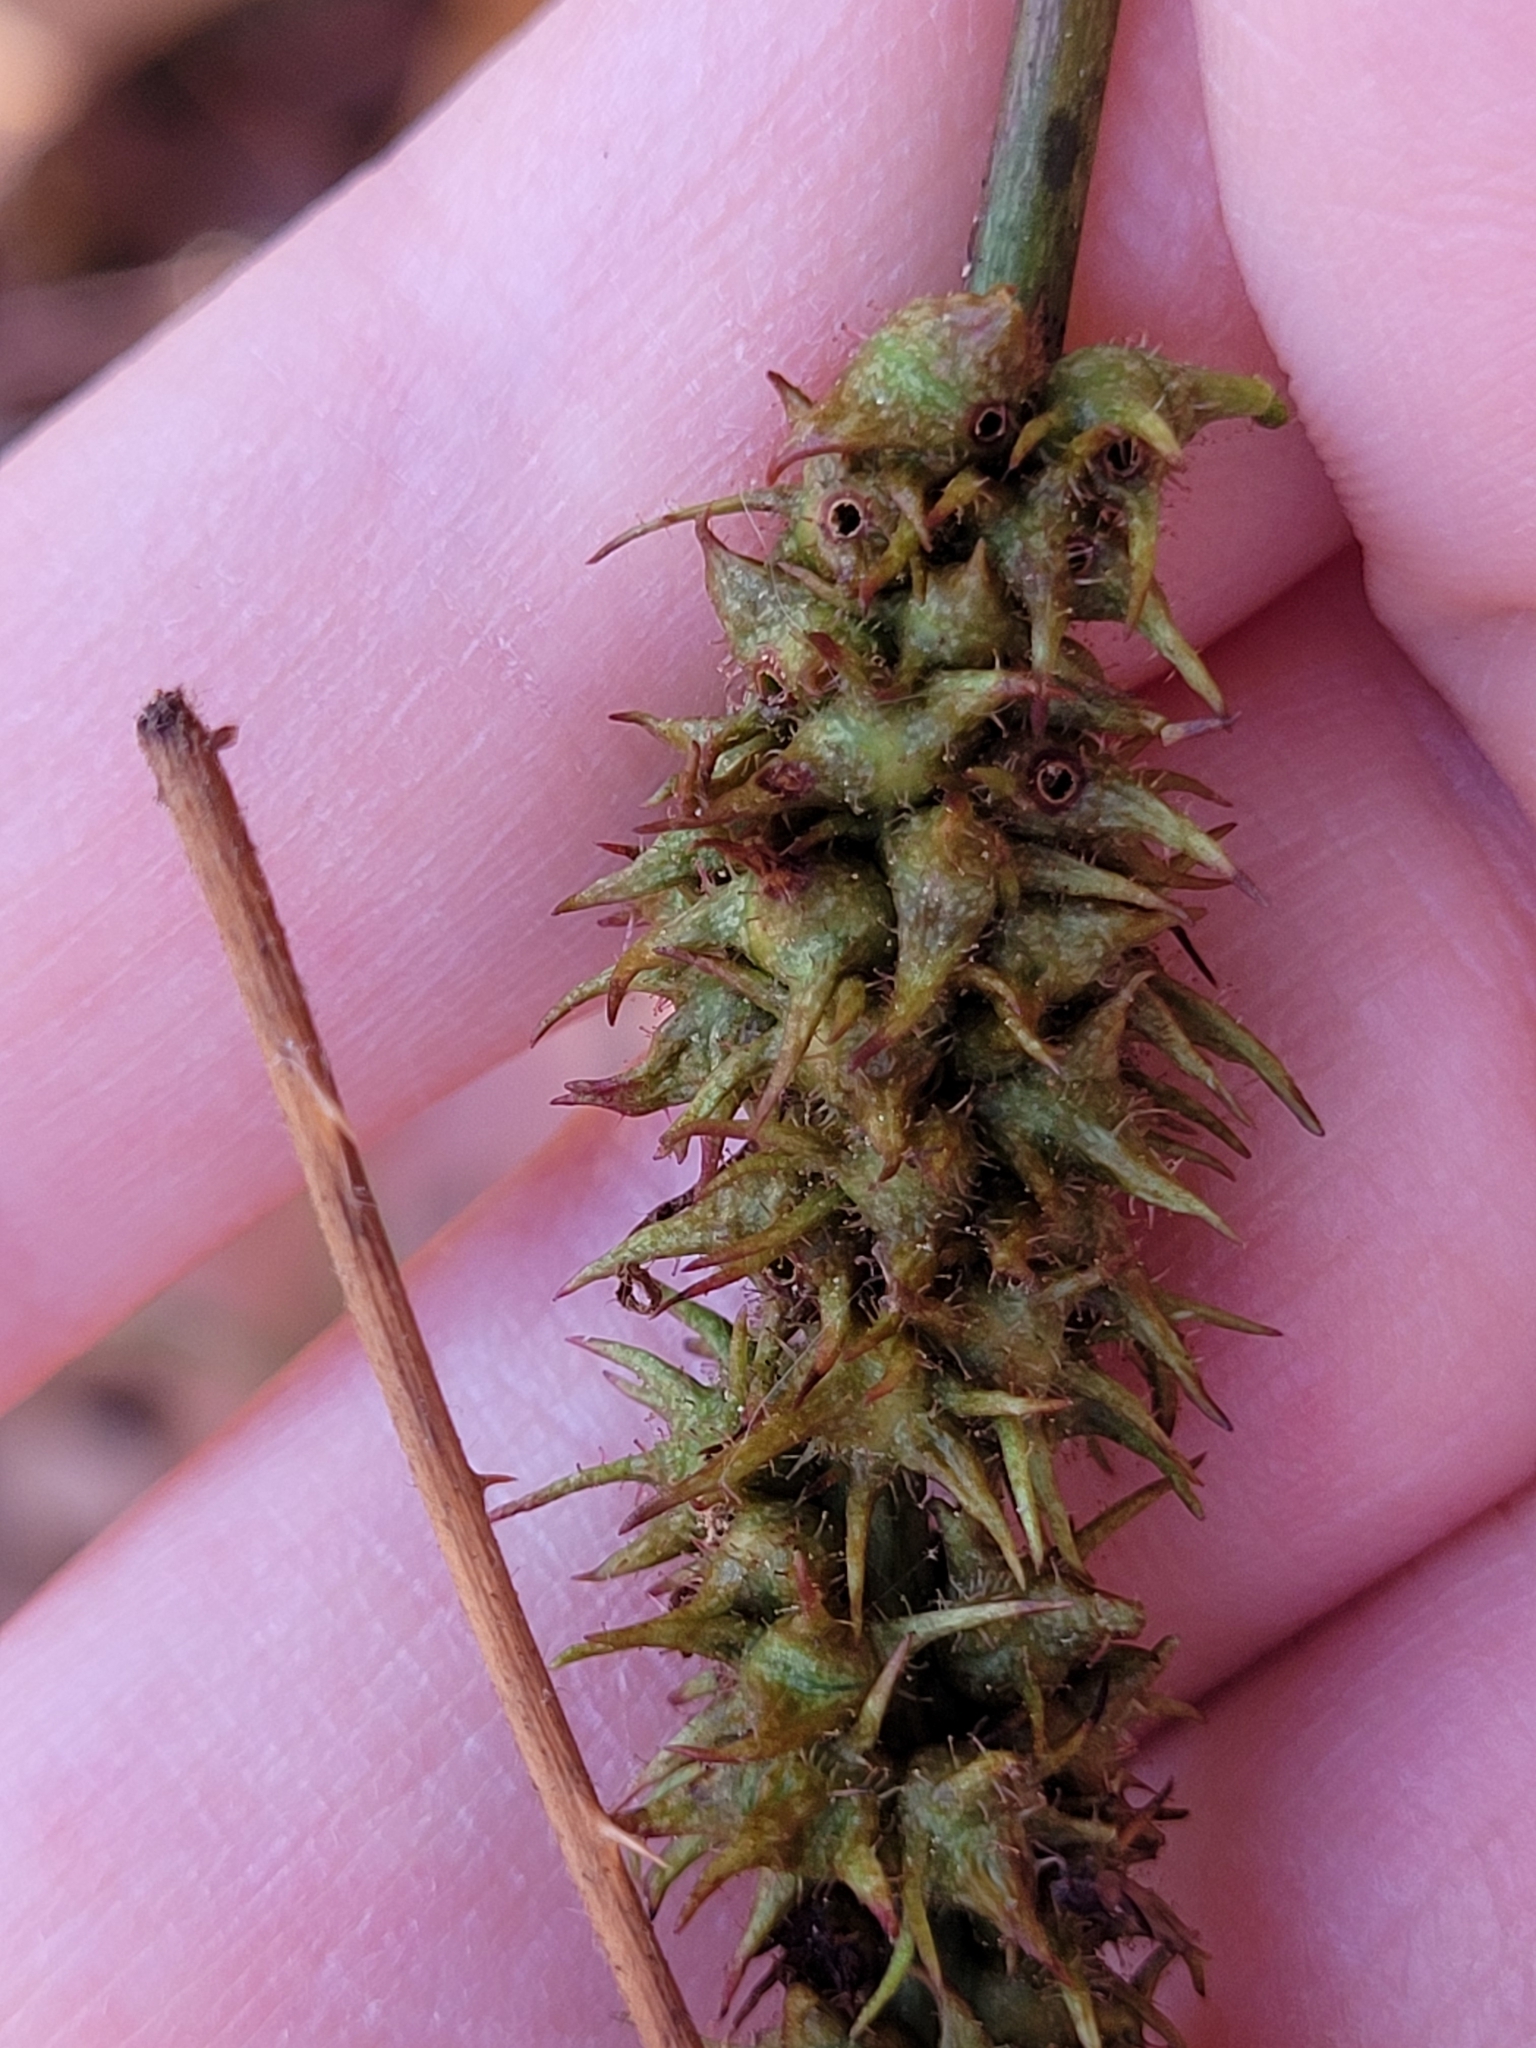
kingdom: Animalia
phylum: Arthropoda
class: Insecta
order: Hymenoptera
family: Cynipidae
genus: Diastrophus
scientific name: Diastrophus
